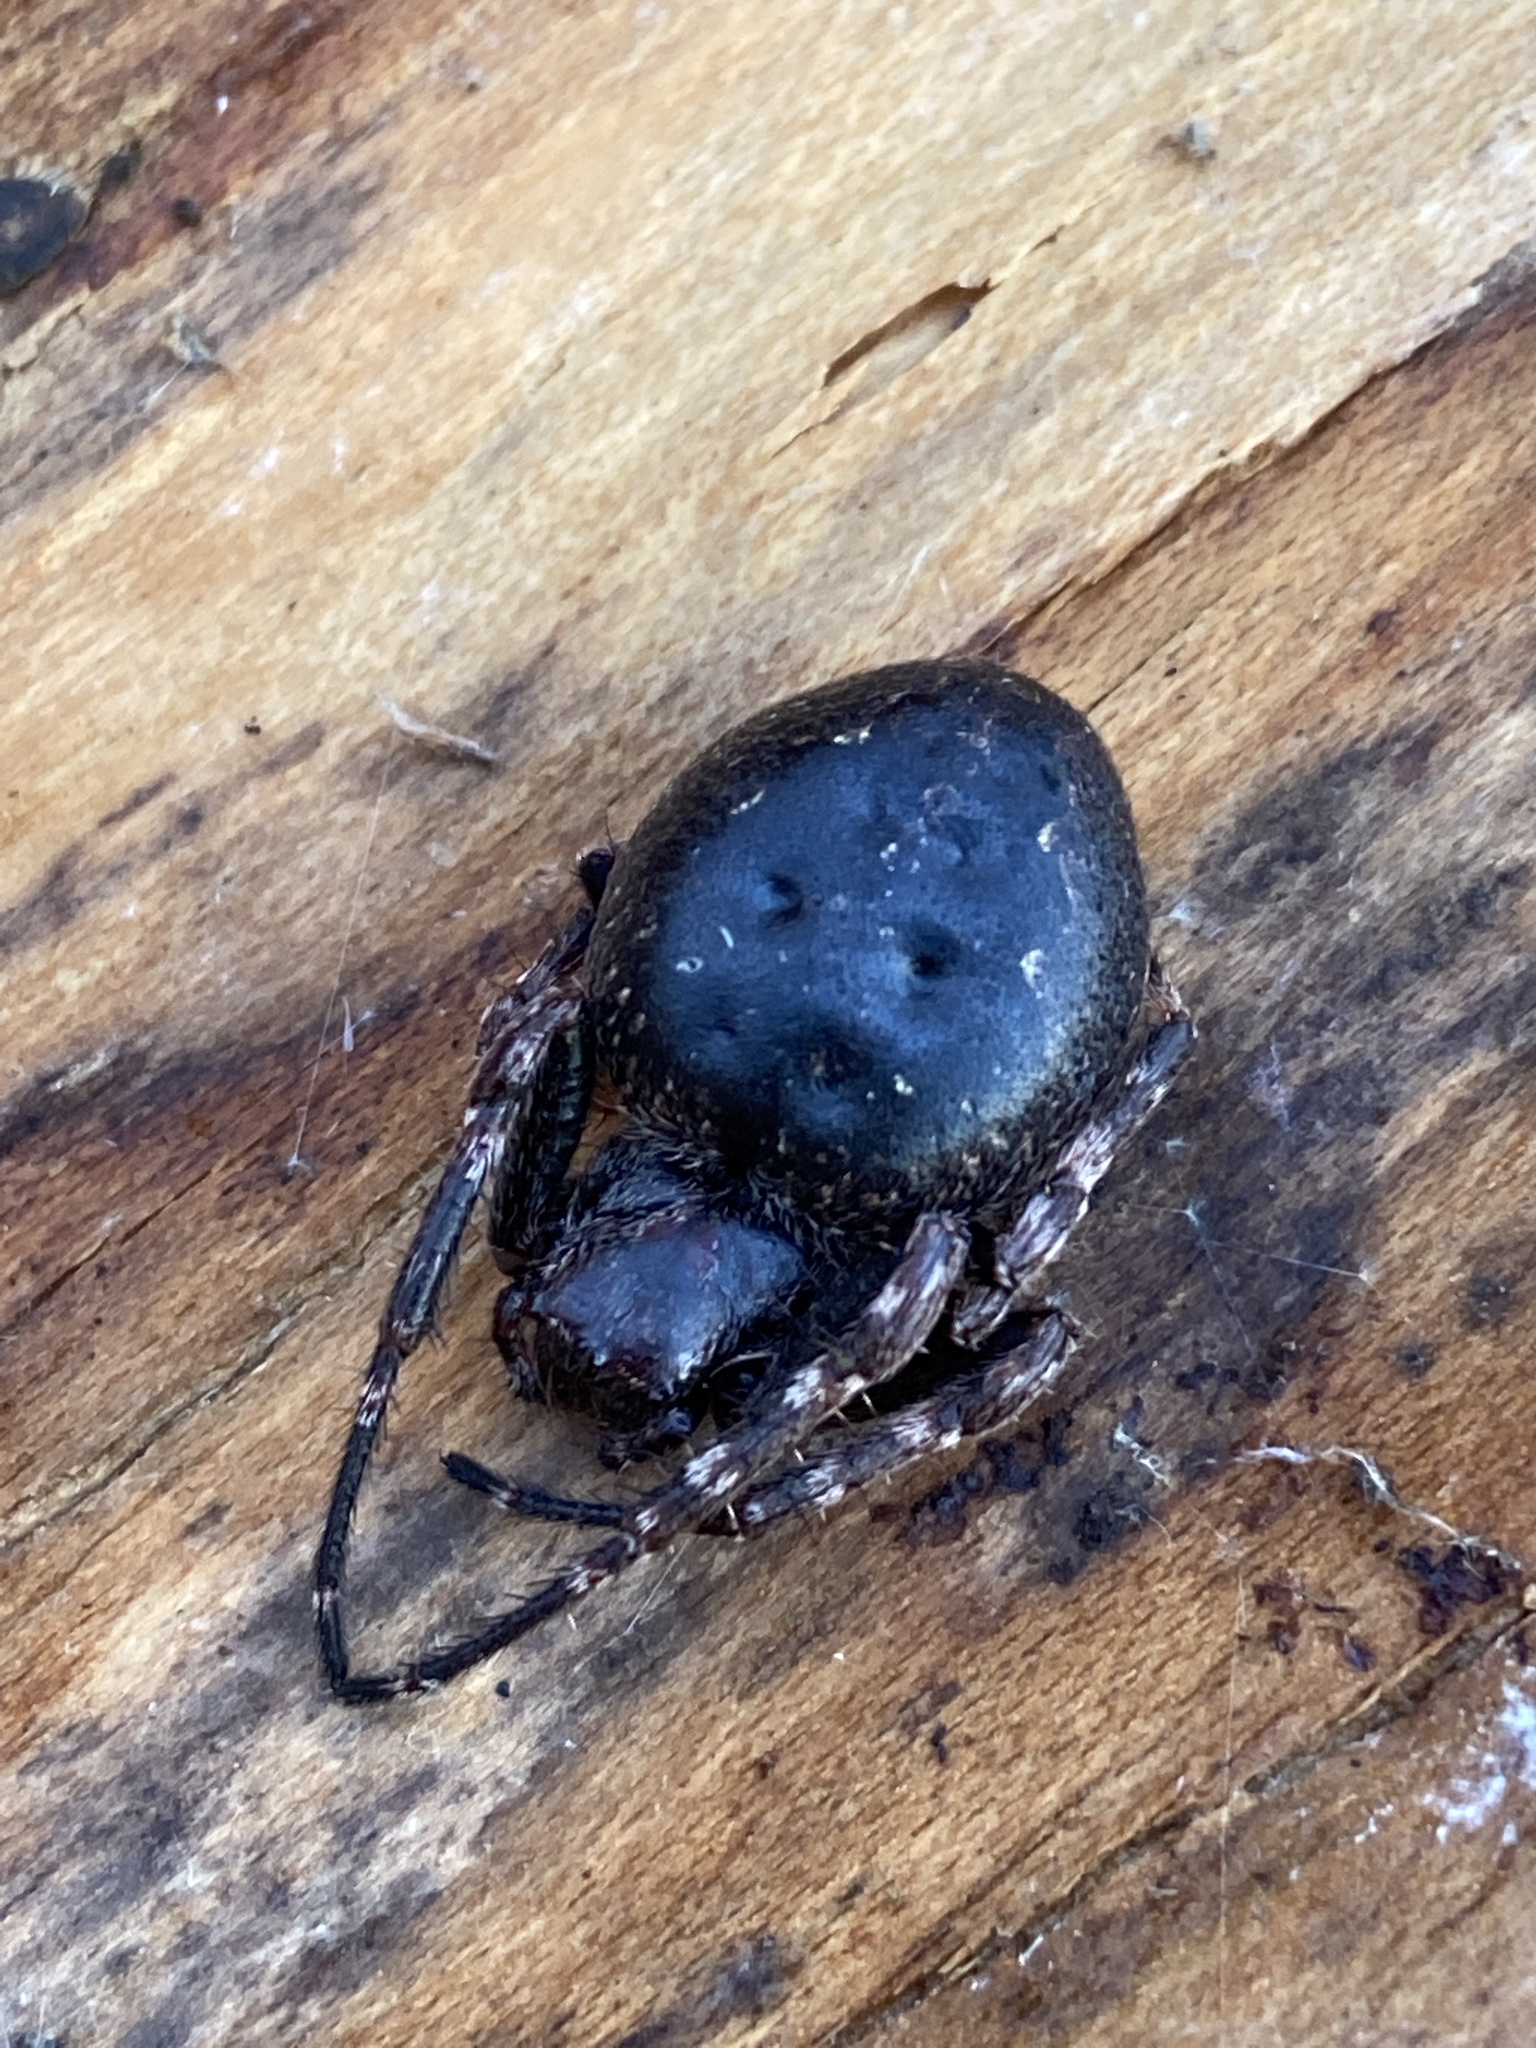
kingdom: Animalia
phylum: Arthropoda
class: Arachnida
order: Araneae
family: Araneidae
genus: Nuctenea
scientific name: Nuctenea umbratica
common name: Toad spider
